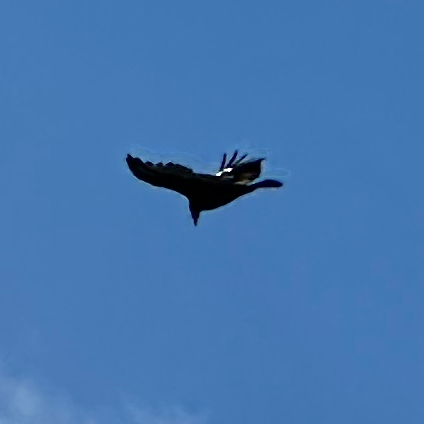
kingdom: Animalia
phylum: Chordata
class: Aves
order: Accipitriformes
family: Cathartidae
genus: Cathartes
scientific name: Cathartes aura
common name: Turkey vulture
